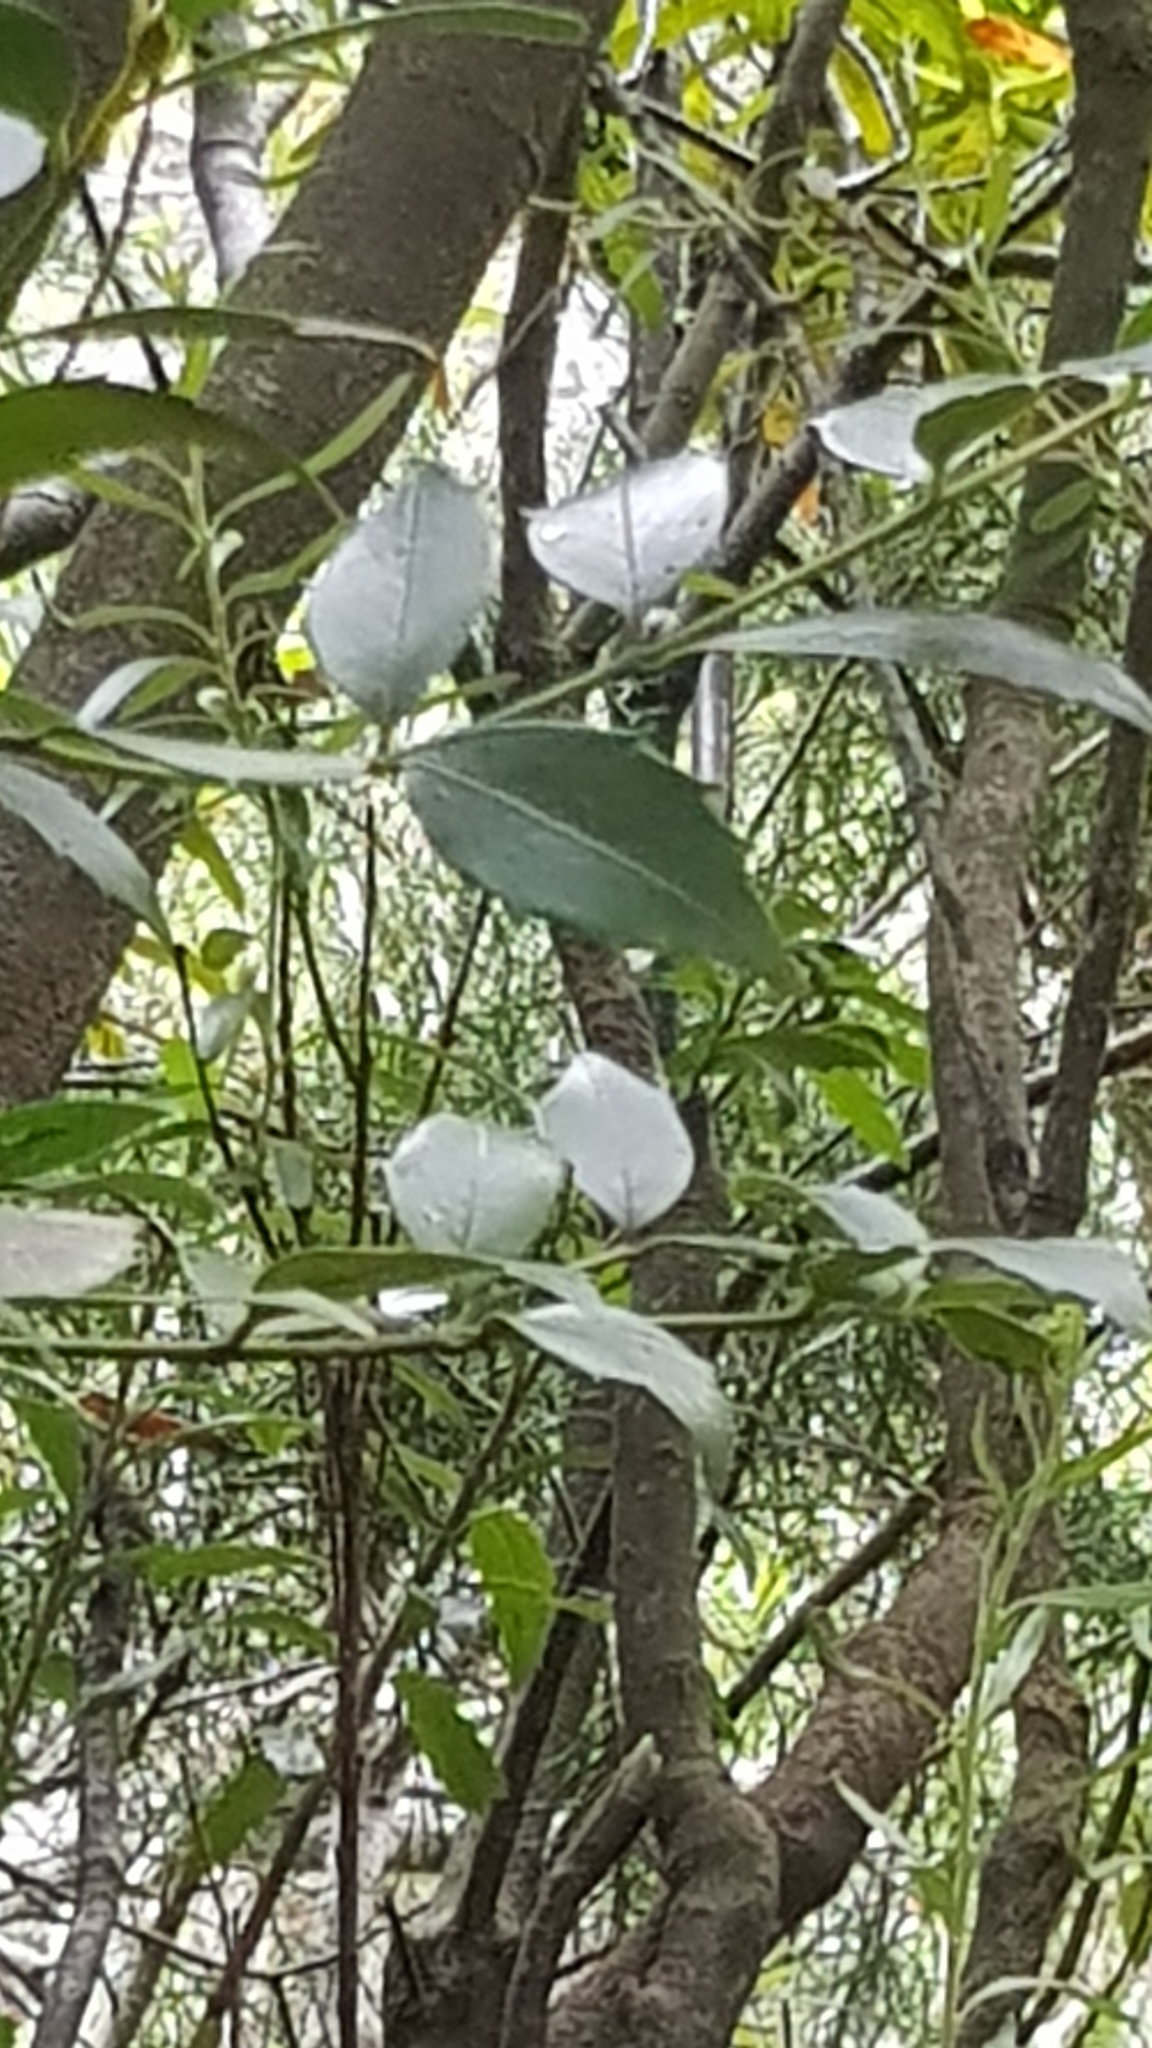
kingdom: Plantae
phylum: Tracheophyta
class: Magnoliopsida
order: Laurales
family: Atherospermataceae
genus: Atherosperma
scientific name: Atherosperma moschatum
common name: Tasmanian-sassafras
